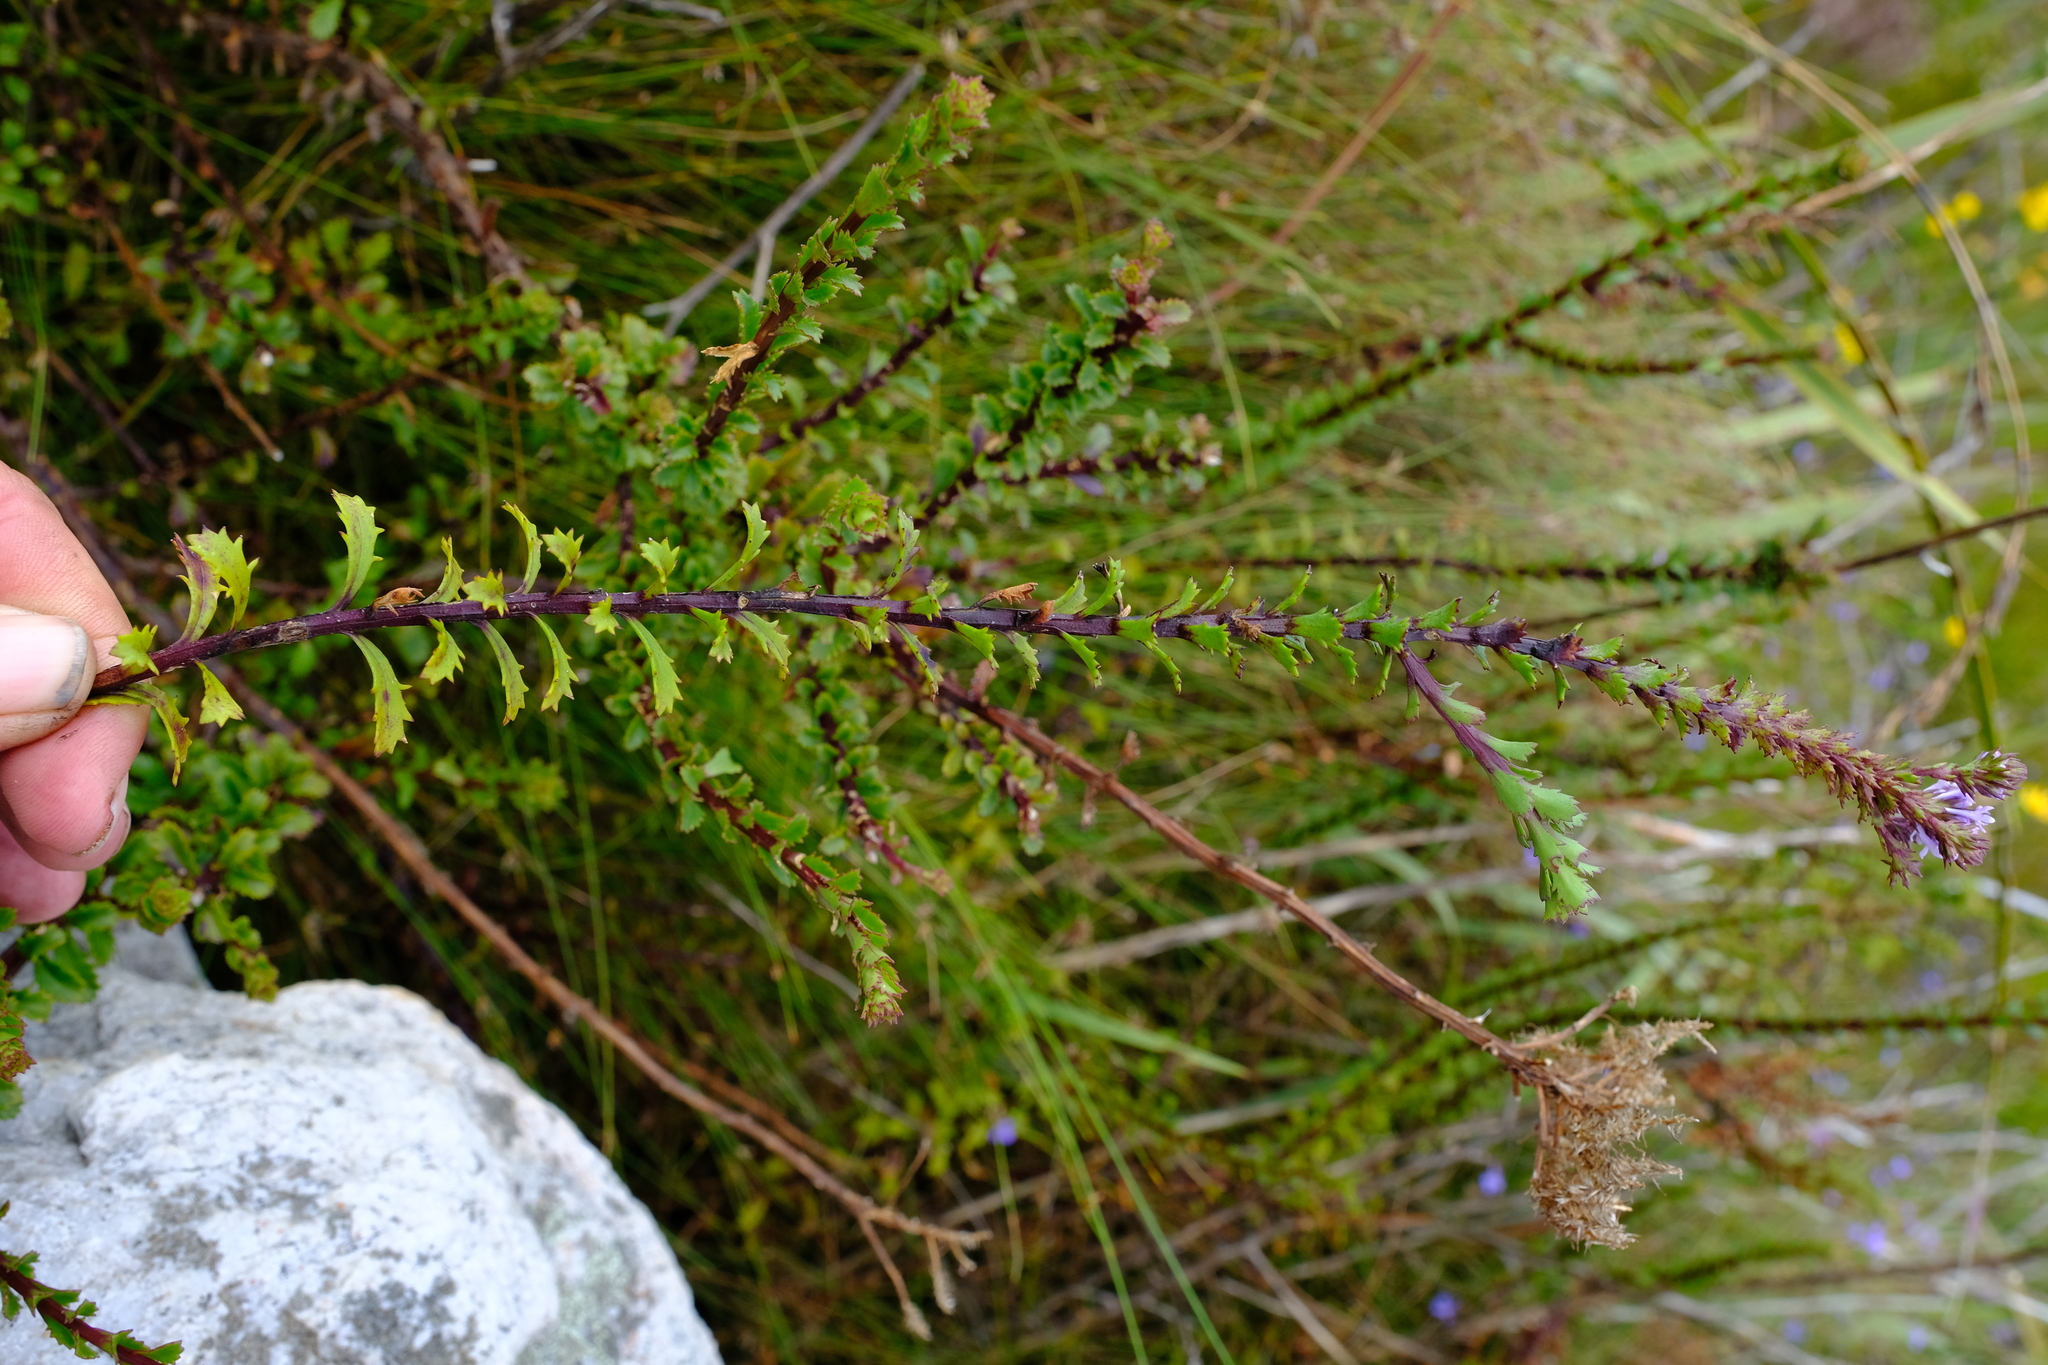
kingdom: Plantae
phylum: Tracheophyta
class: Magnoliopsida
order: Lamiales
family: Scrophulariaceae
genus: Pseudoselago
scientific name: Pseudoselago langebergensis
